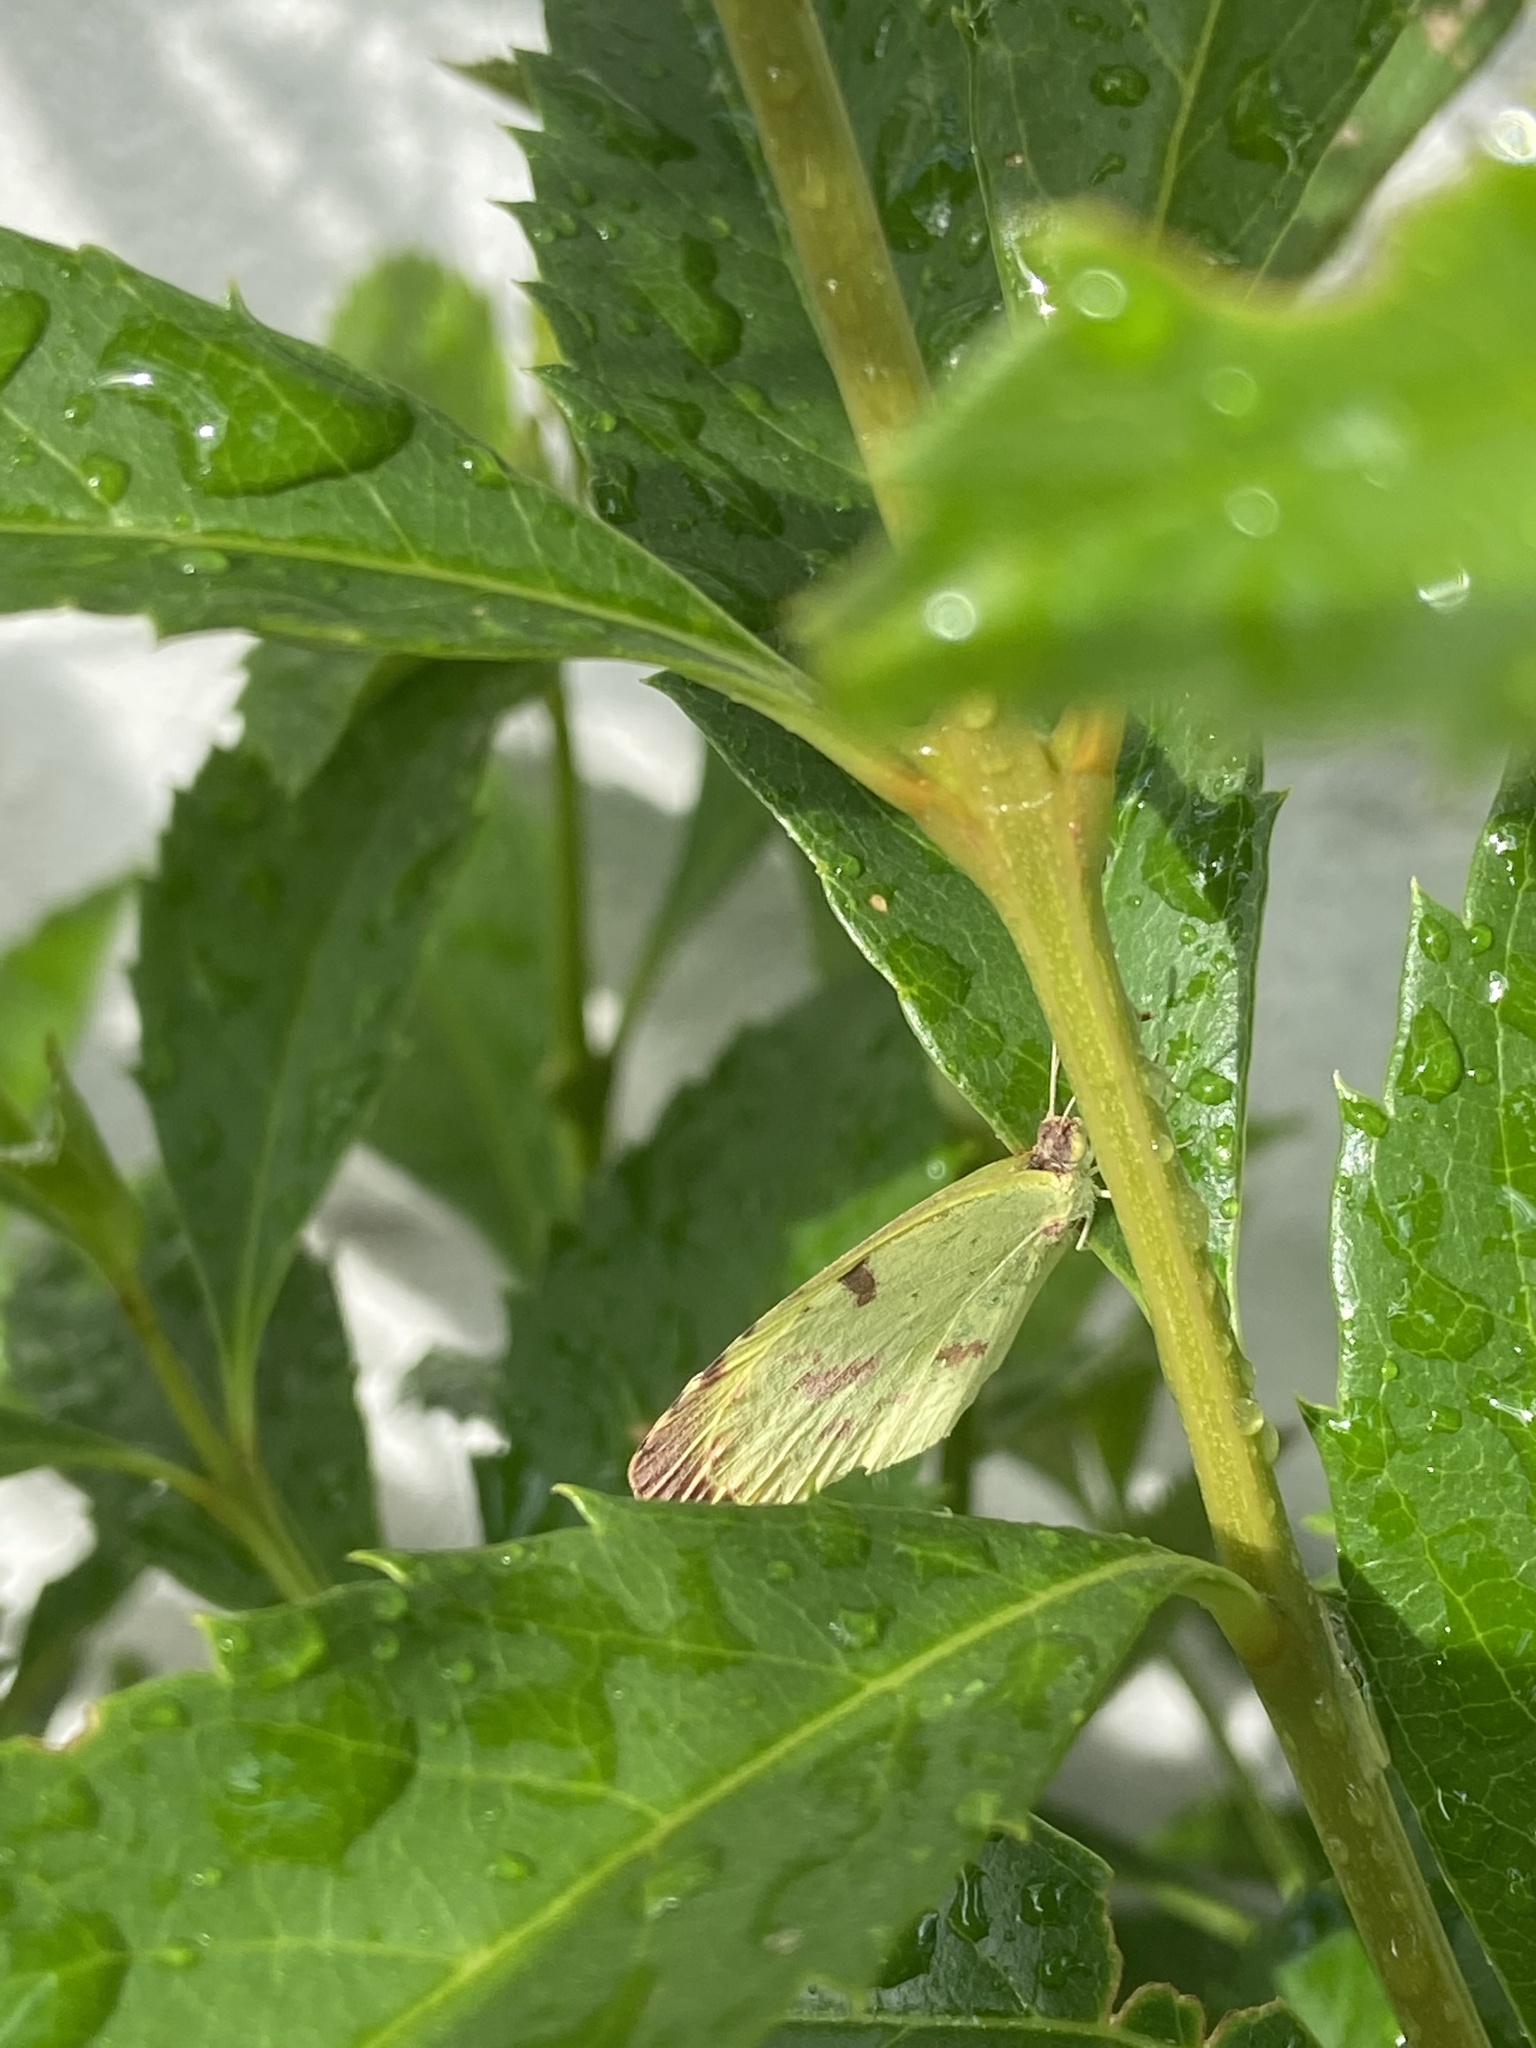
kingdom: Animalia
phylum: Arthropoda
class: Insecta
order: Lepidoptera
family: Pieridae
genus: Teriocolias
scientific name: Teriocolias
